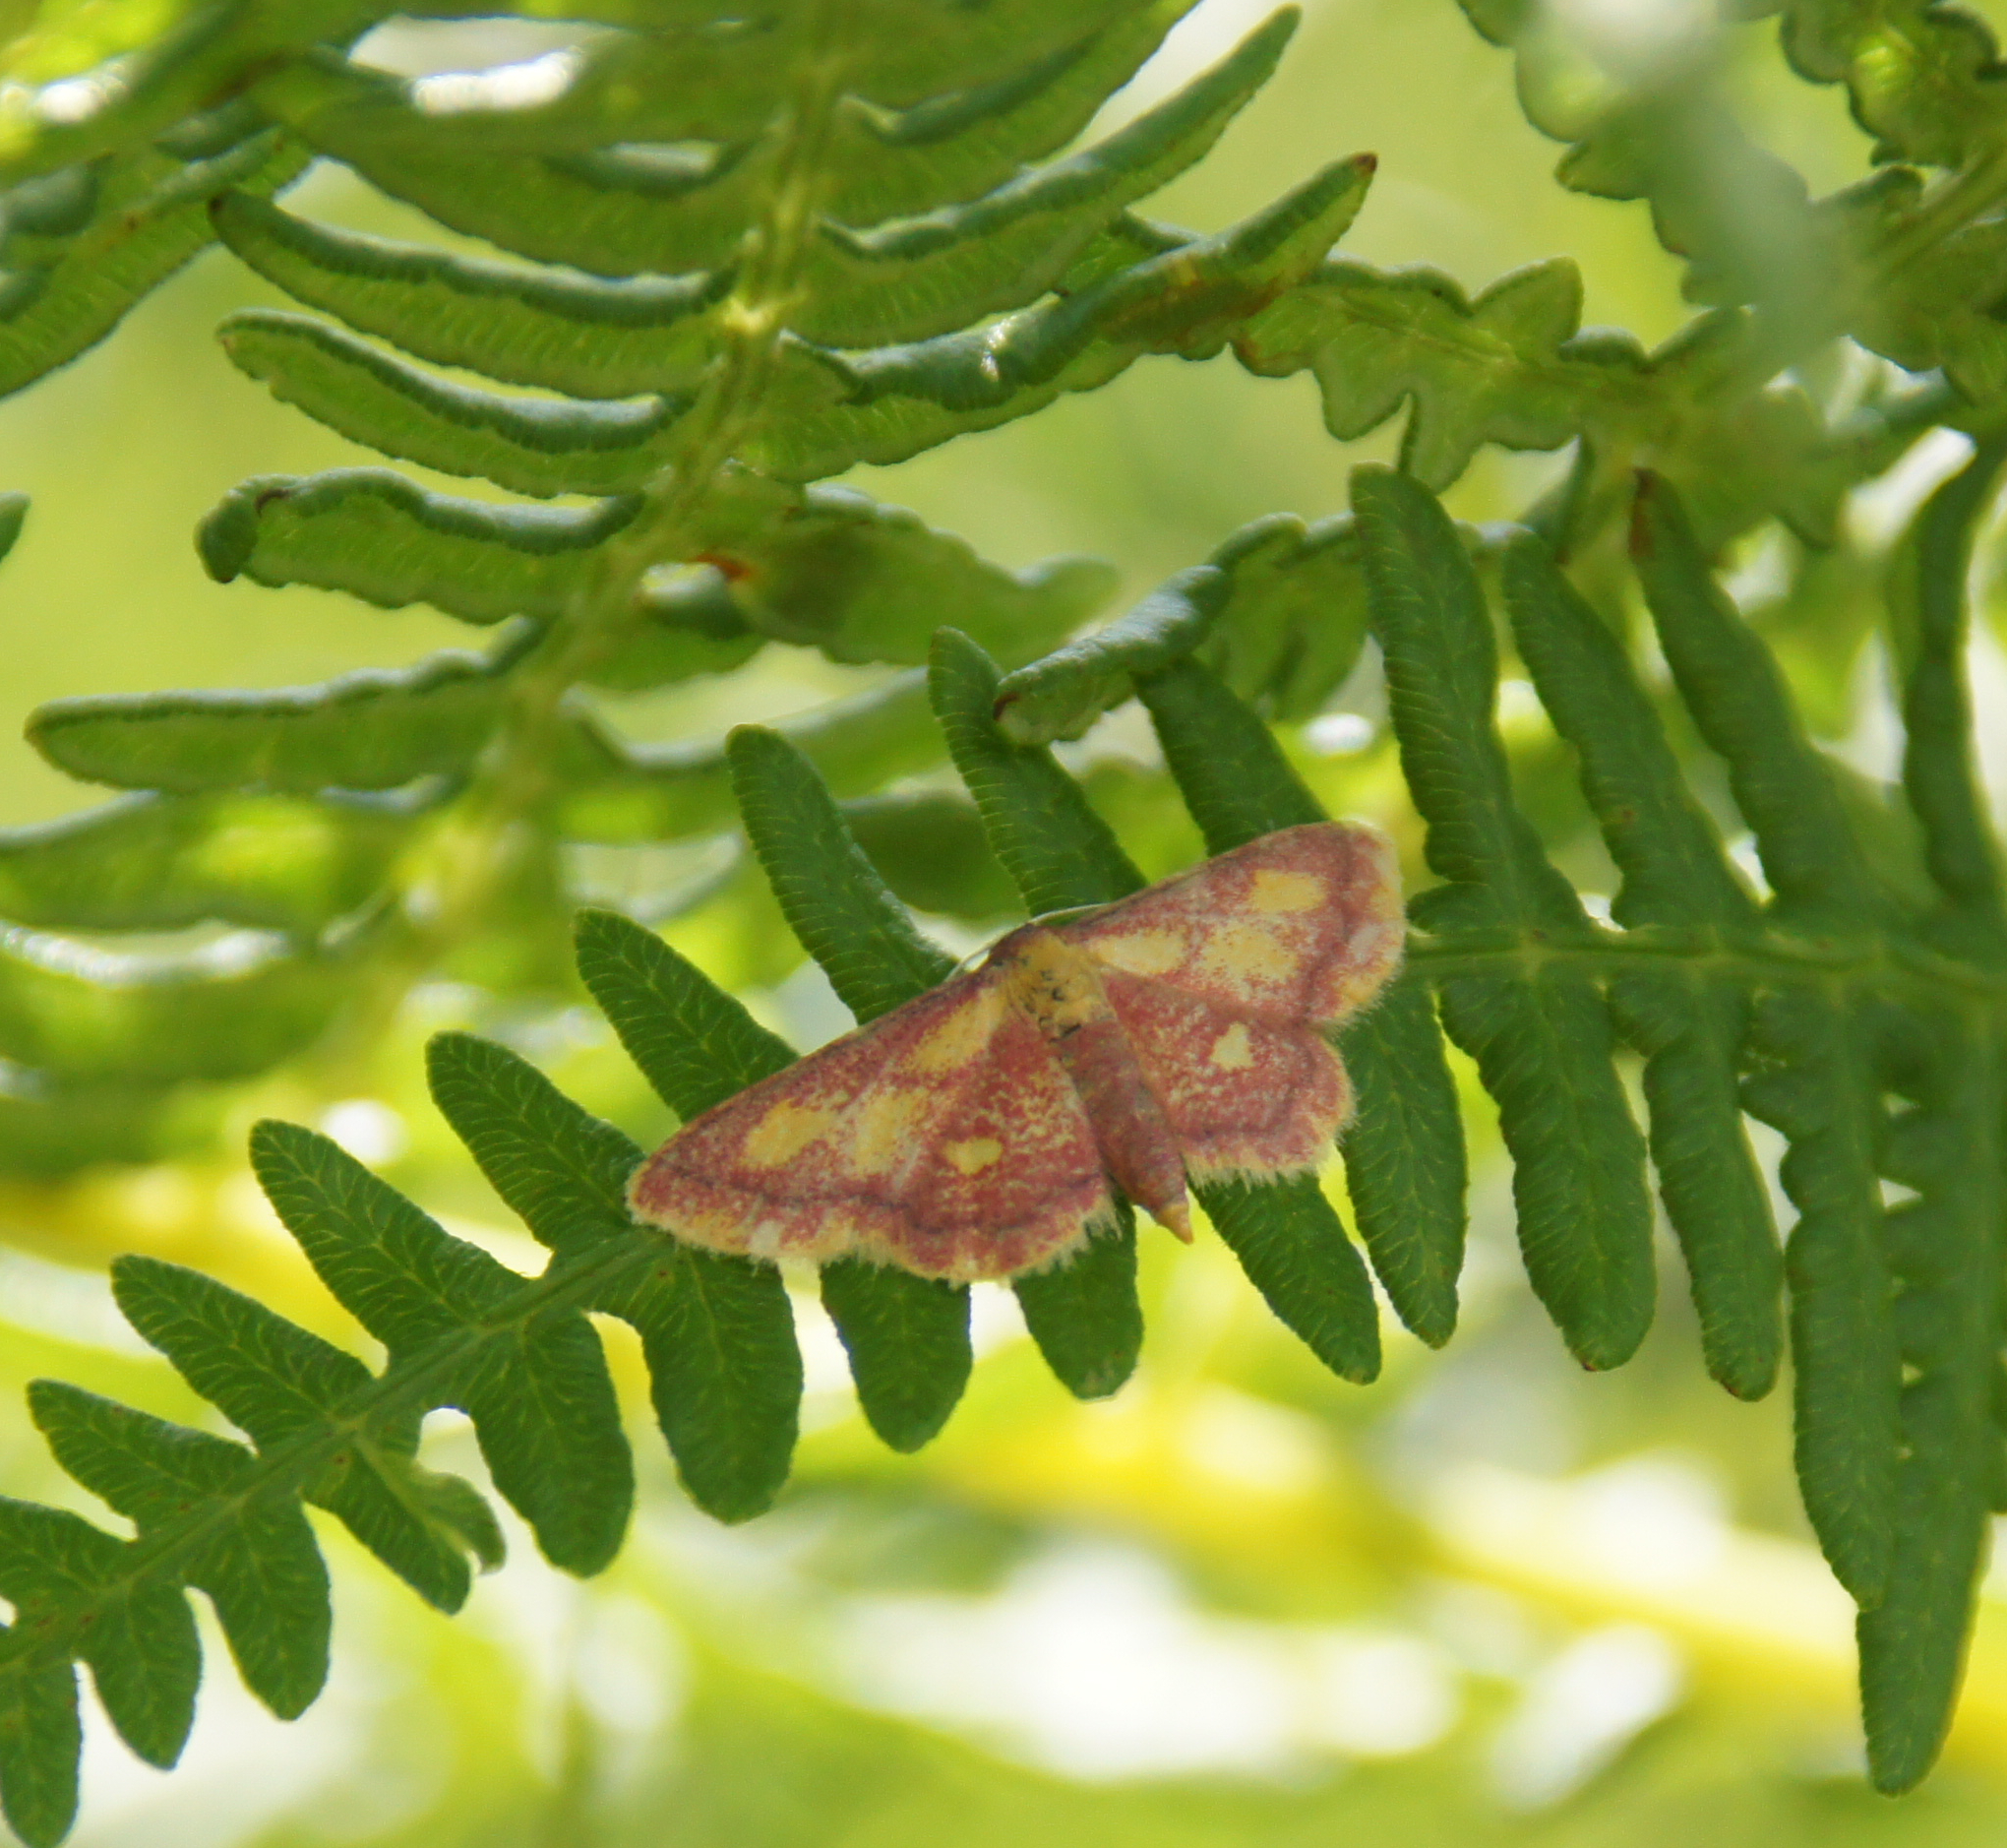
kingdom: Animalia
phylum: Arthropoda
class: Insecta
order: Lepidoptera
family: Geometridae
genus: Idaea
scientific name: Idaea muricata
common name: Purple-bordered gold
